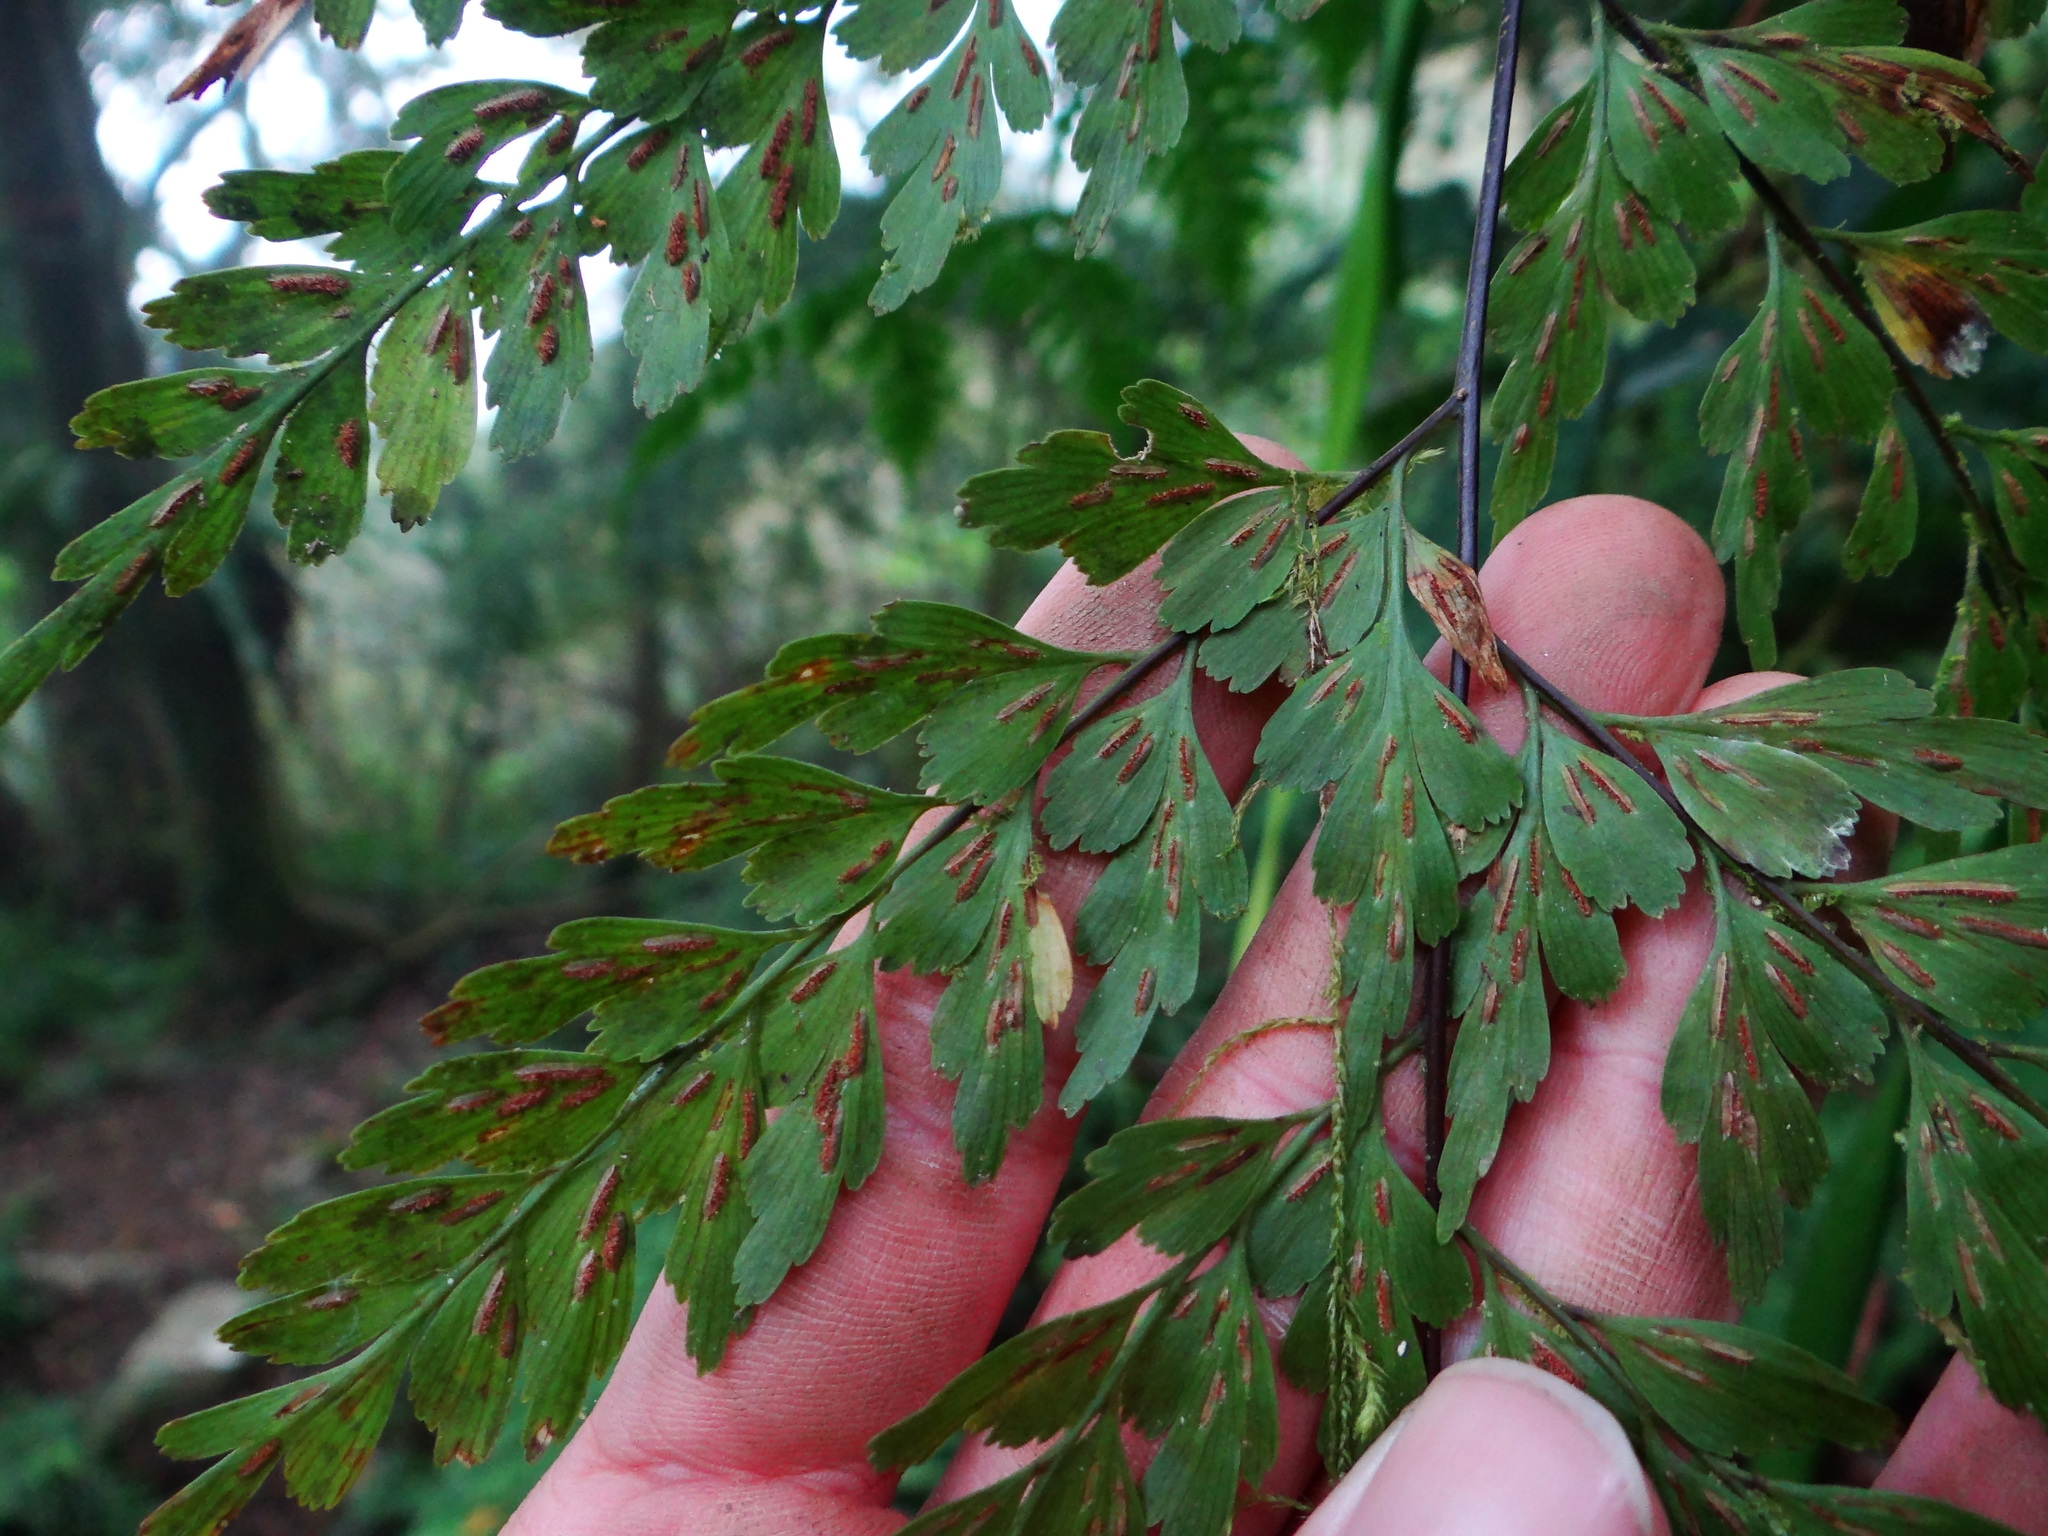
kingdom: Plantae
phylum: Tracheophyta
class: Polypodiopsida
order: Polypodiales
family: Aspleniaceae
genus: Asplenium
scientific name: Asplenium pseudolaserpitiifolium
